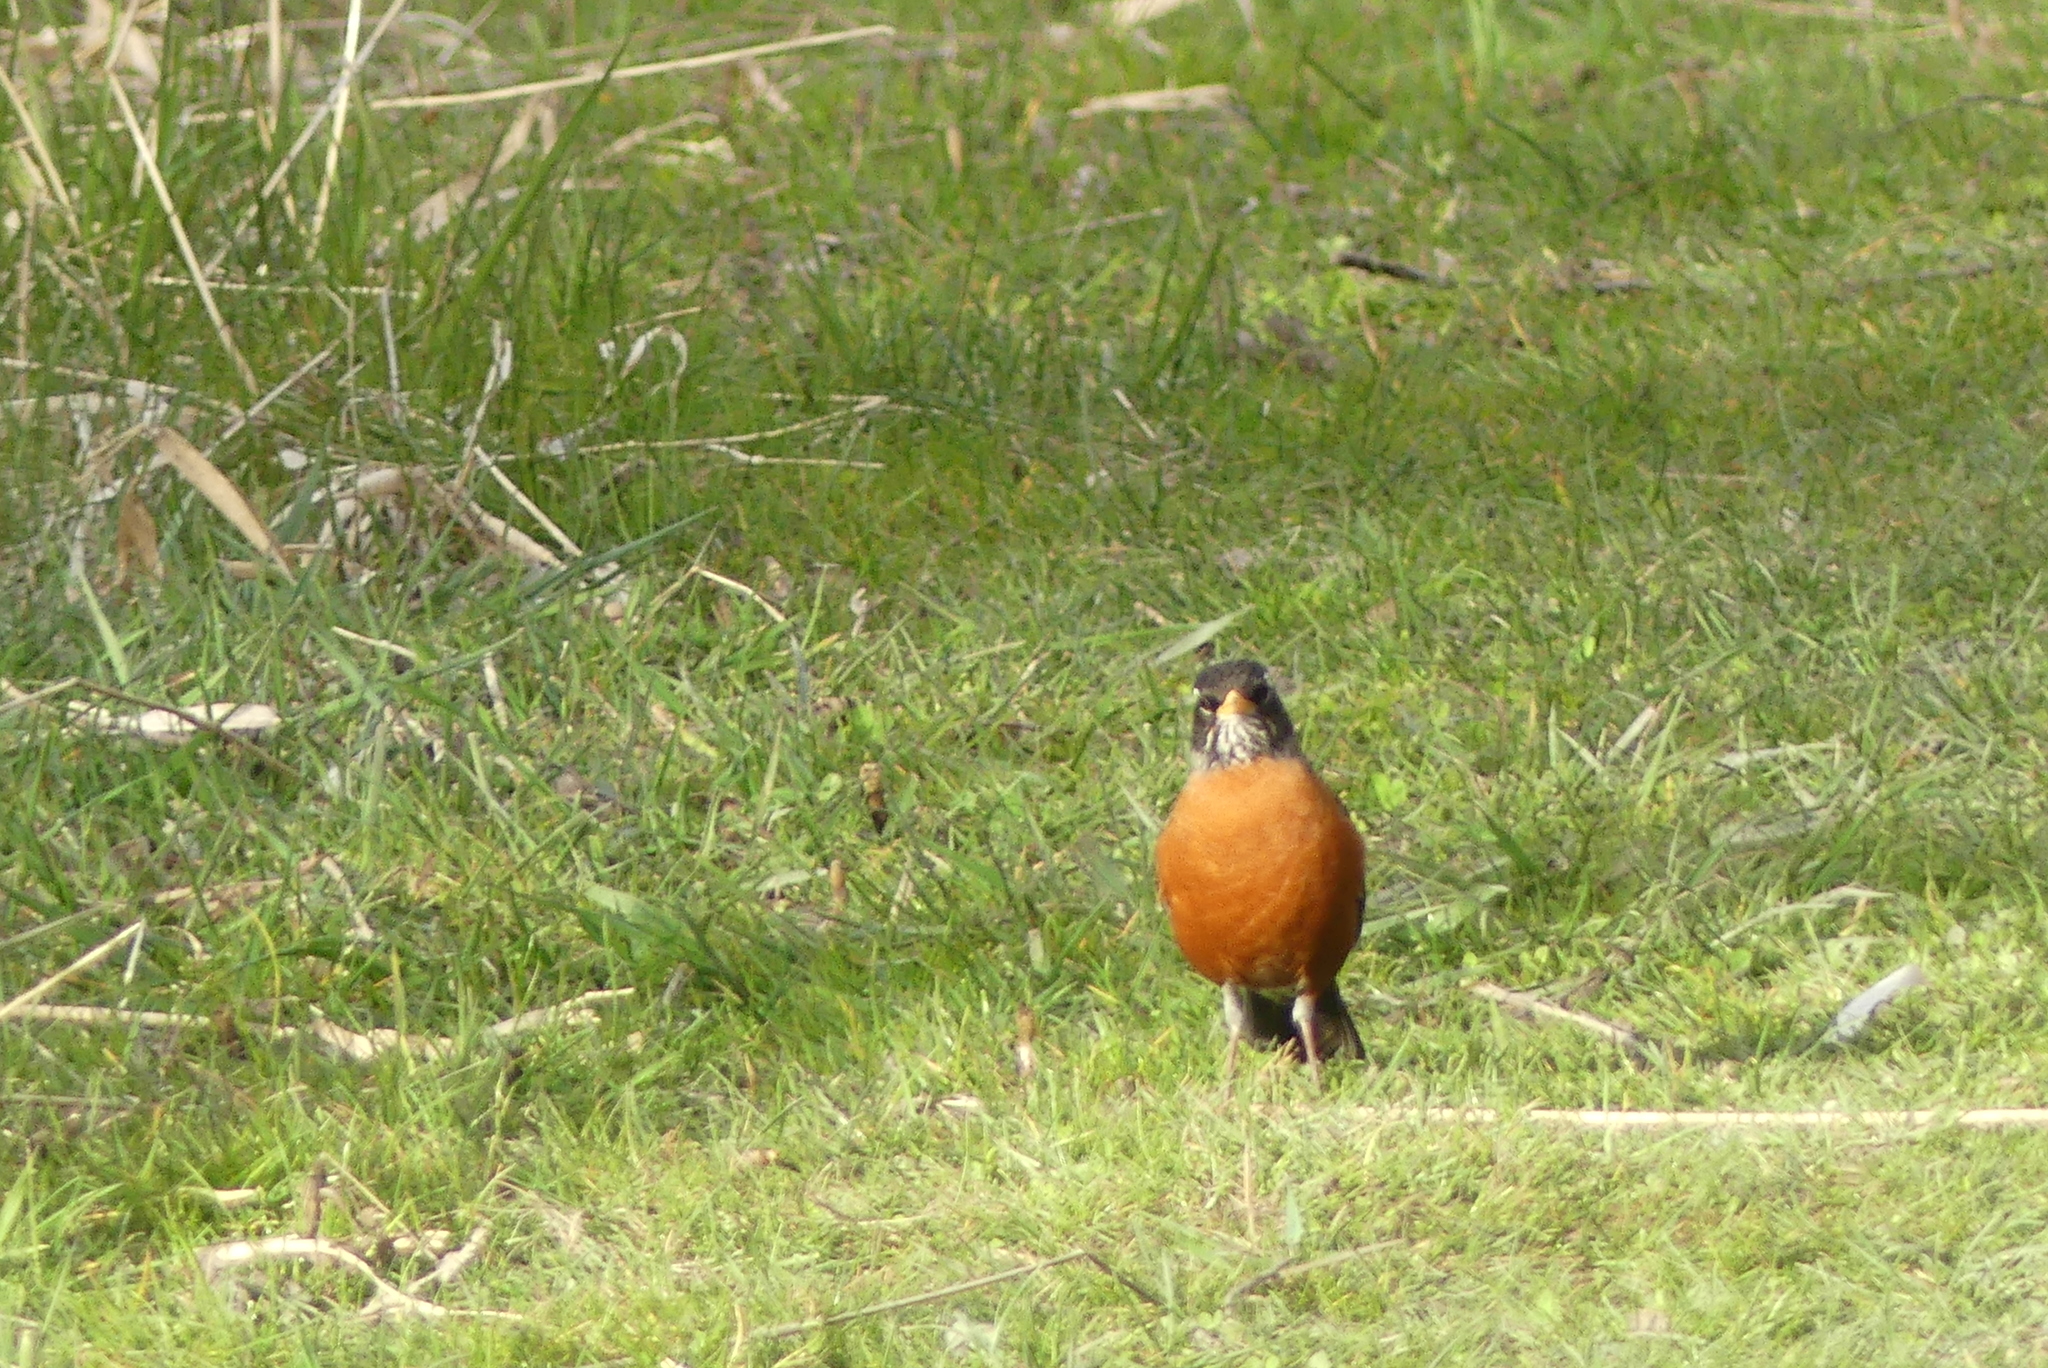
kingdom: Animalia
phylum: Chordata
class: Aves
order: Passeriformes
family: Turdidae
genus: Turdus
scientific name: Turdus migratorius
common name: American robin
